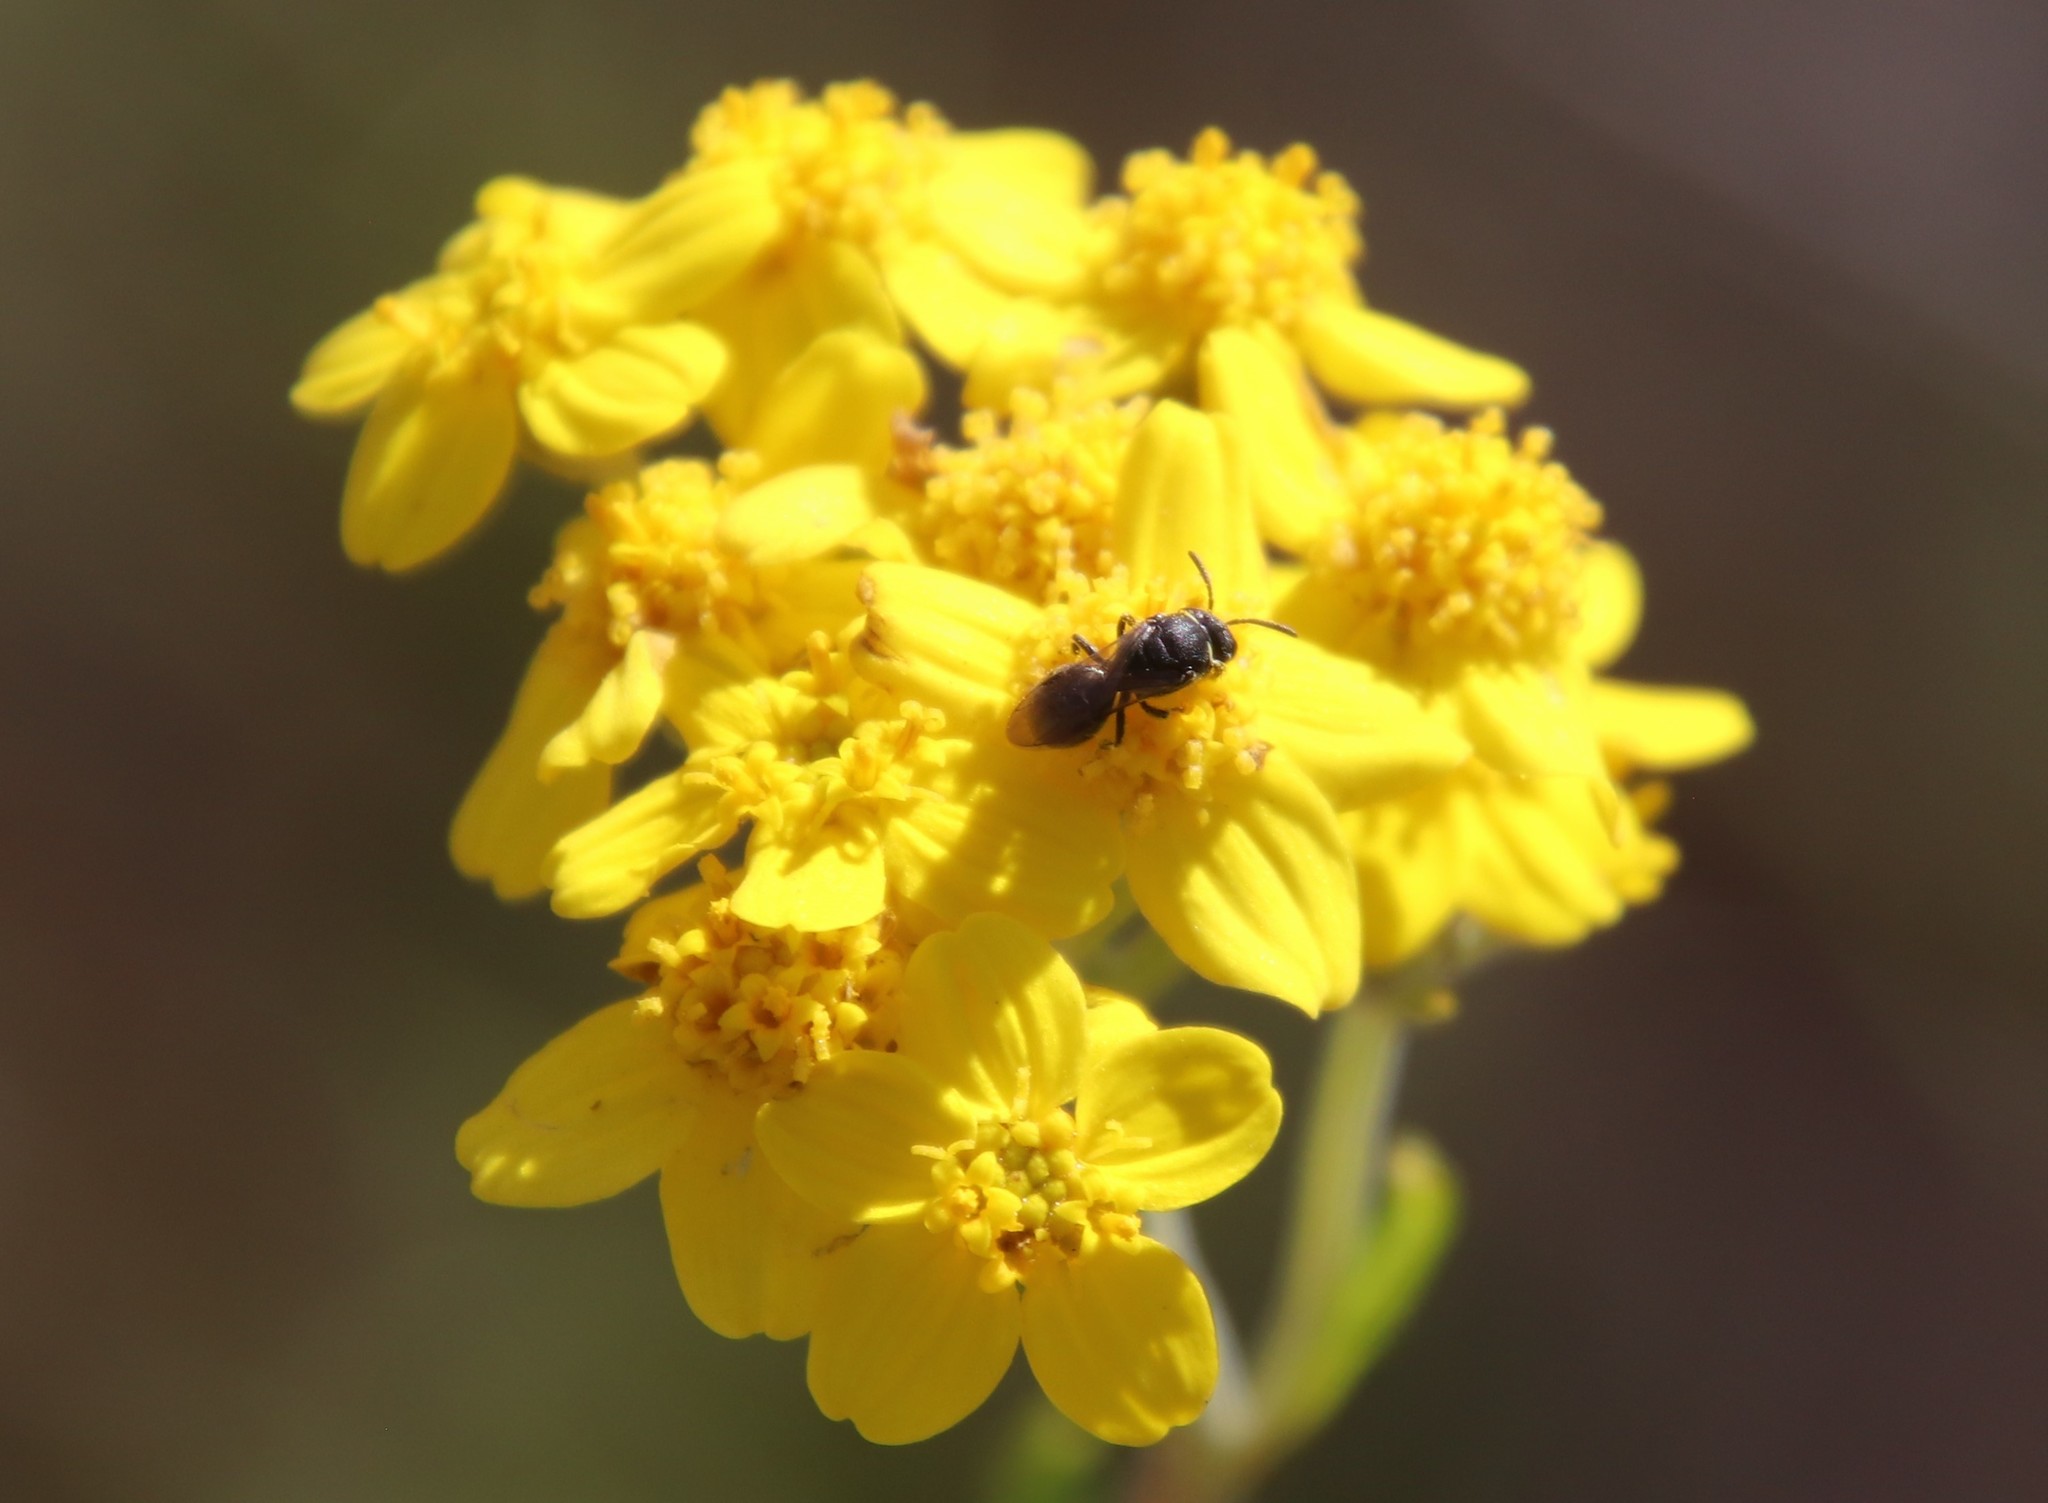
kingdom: Animalia
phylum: Arthropoda
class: Insecta
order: Hymenoptera
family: Colletidae
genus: Hylaeus
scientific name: Hylaeus
